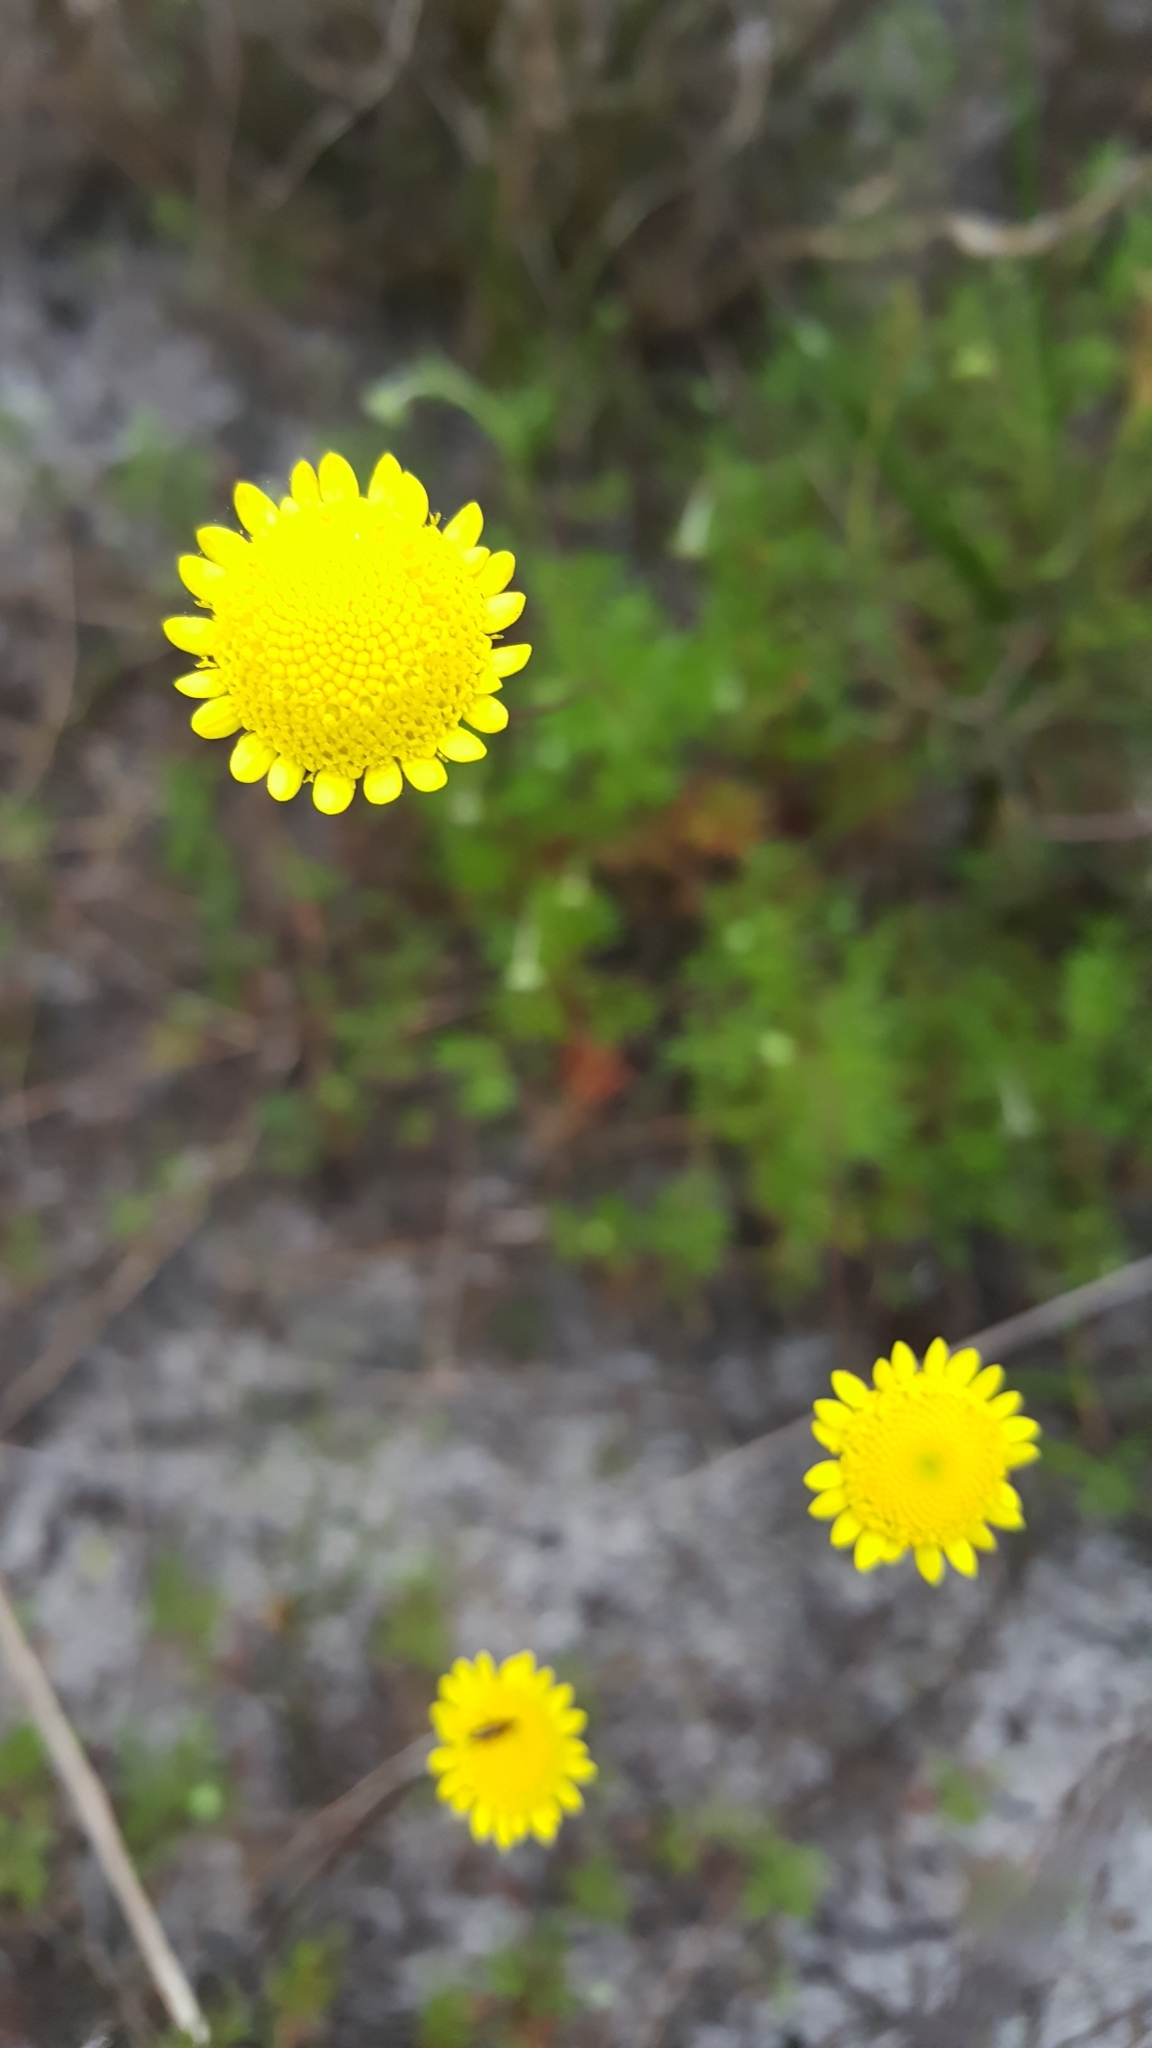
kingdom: Plantae
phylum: Tracheophyta
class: Magnoliopsida
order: Asterales
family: Asteraceae
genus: Cotula
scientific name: Cotula pruinosa
